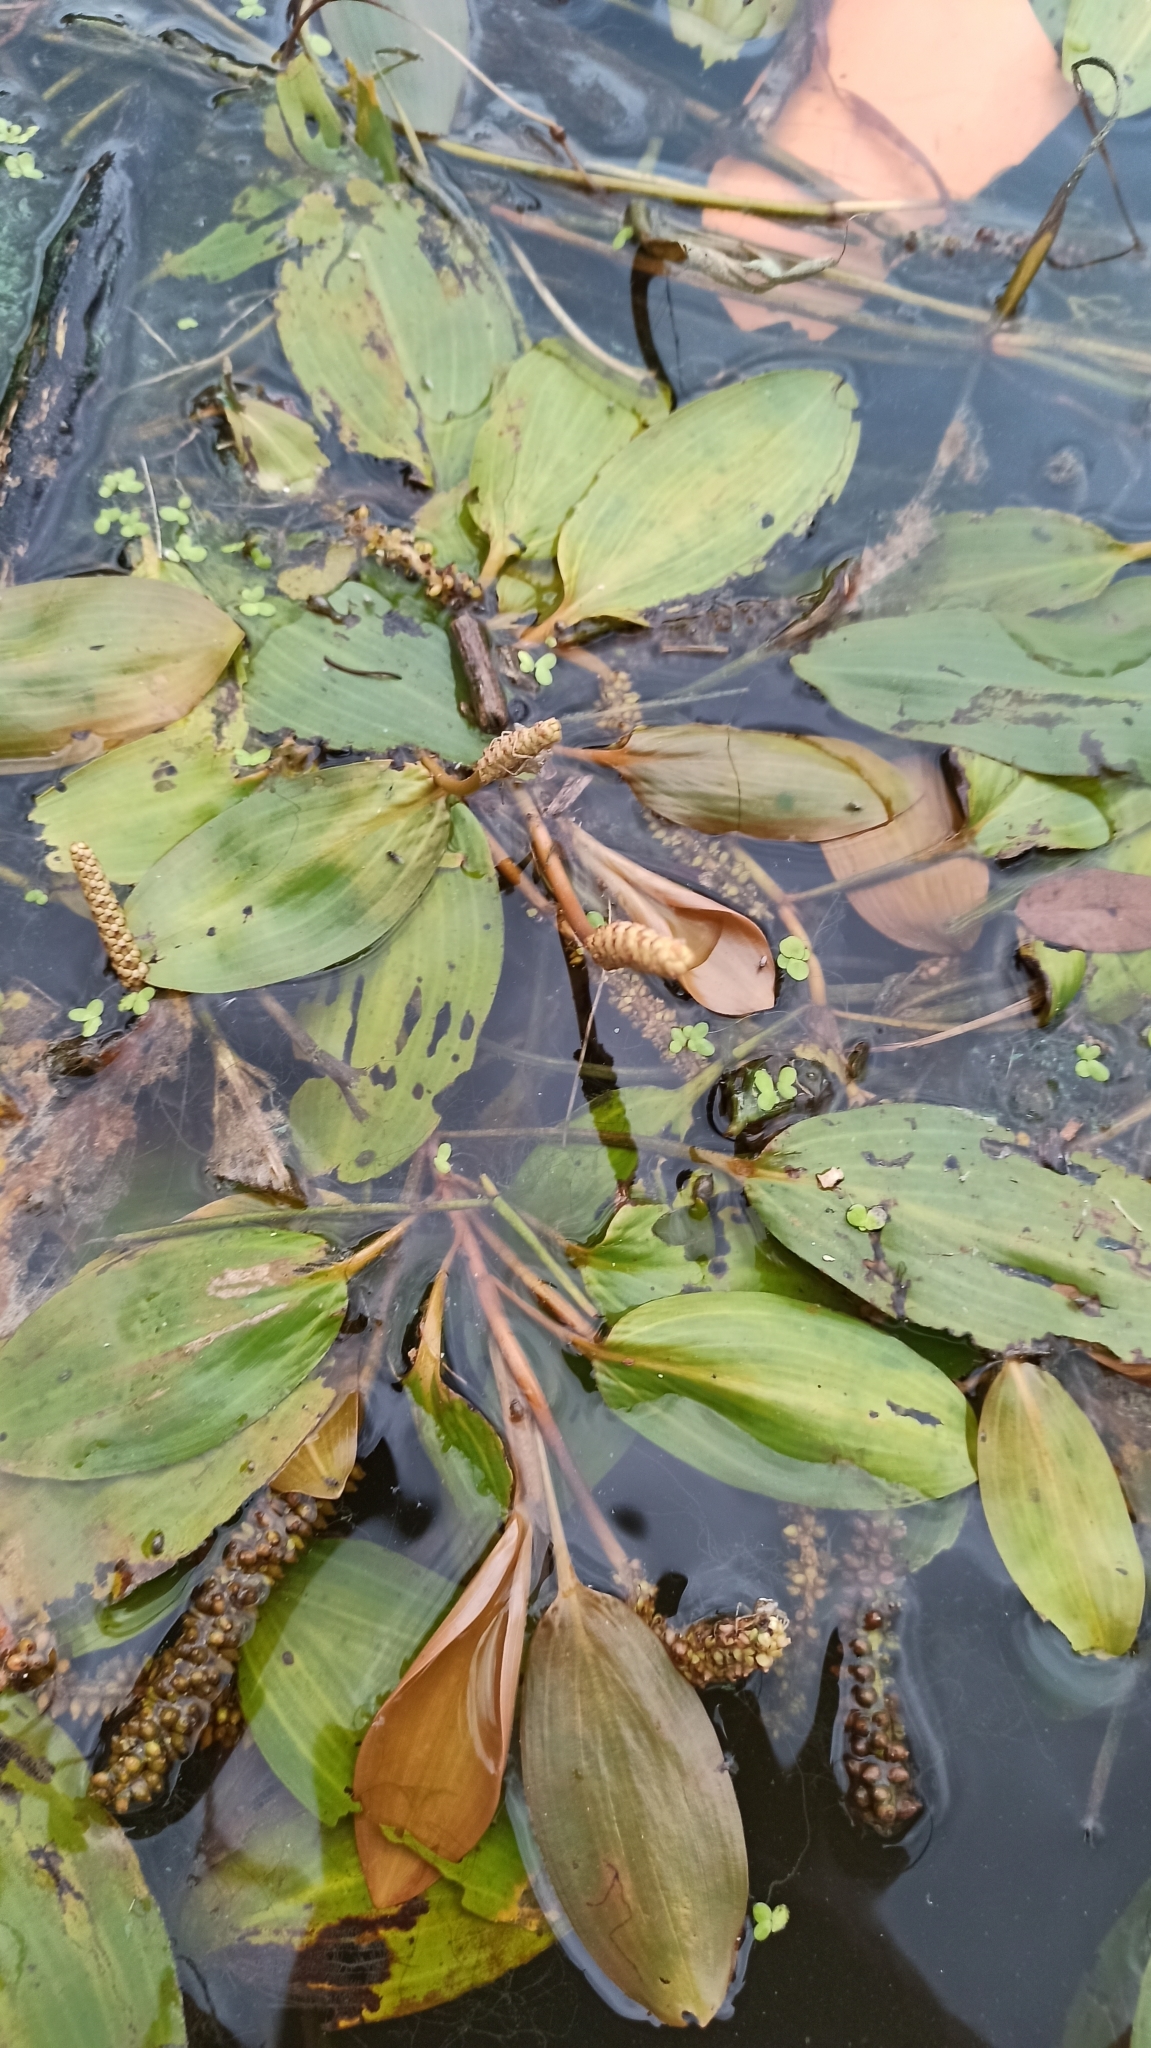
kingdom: Plantae
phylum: Tracheophyta
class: Liliopsida
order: Alismatales
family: Potamogetonaceae
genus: Potamogeton
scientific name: Potamogeton nodosus
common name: Loddon pondweed
